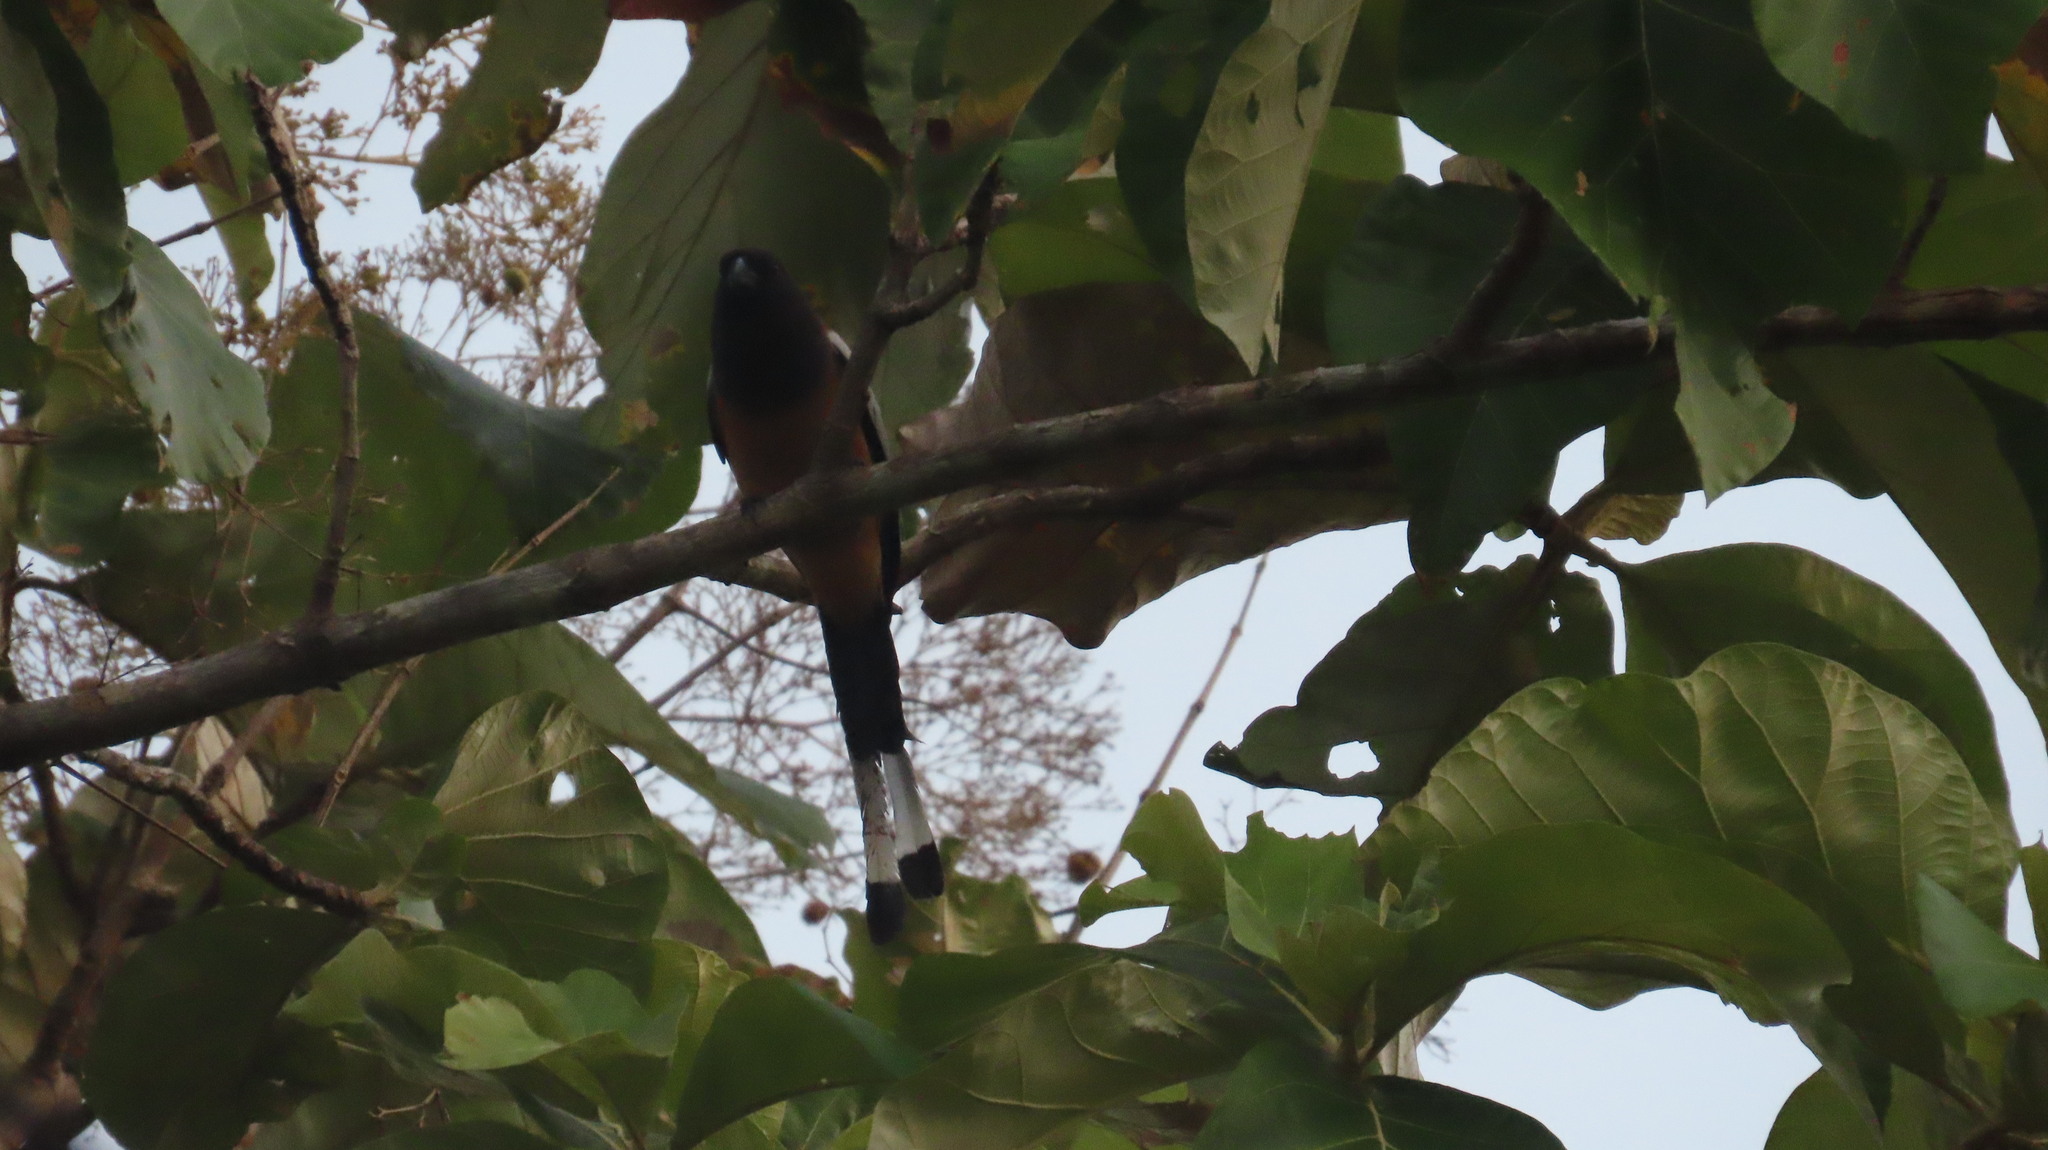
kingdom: Animalia
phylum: Chordata
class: Aves
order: Passeriformes
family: Corvidae
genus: Dendrocitta
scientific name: Dendrocitta vagabunda
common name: Rufous treepie
